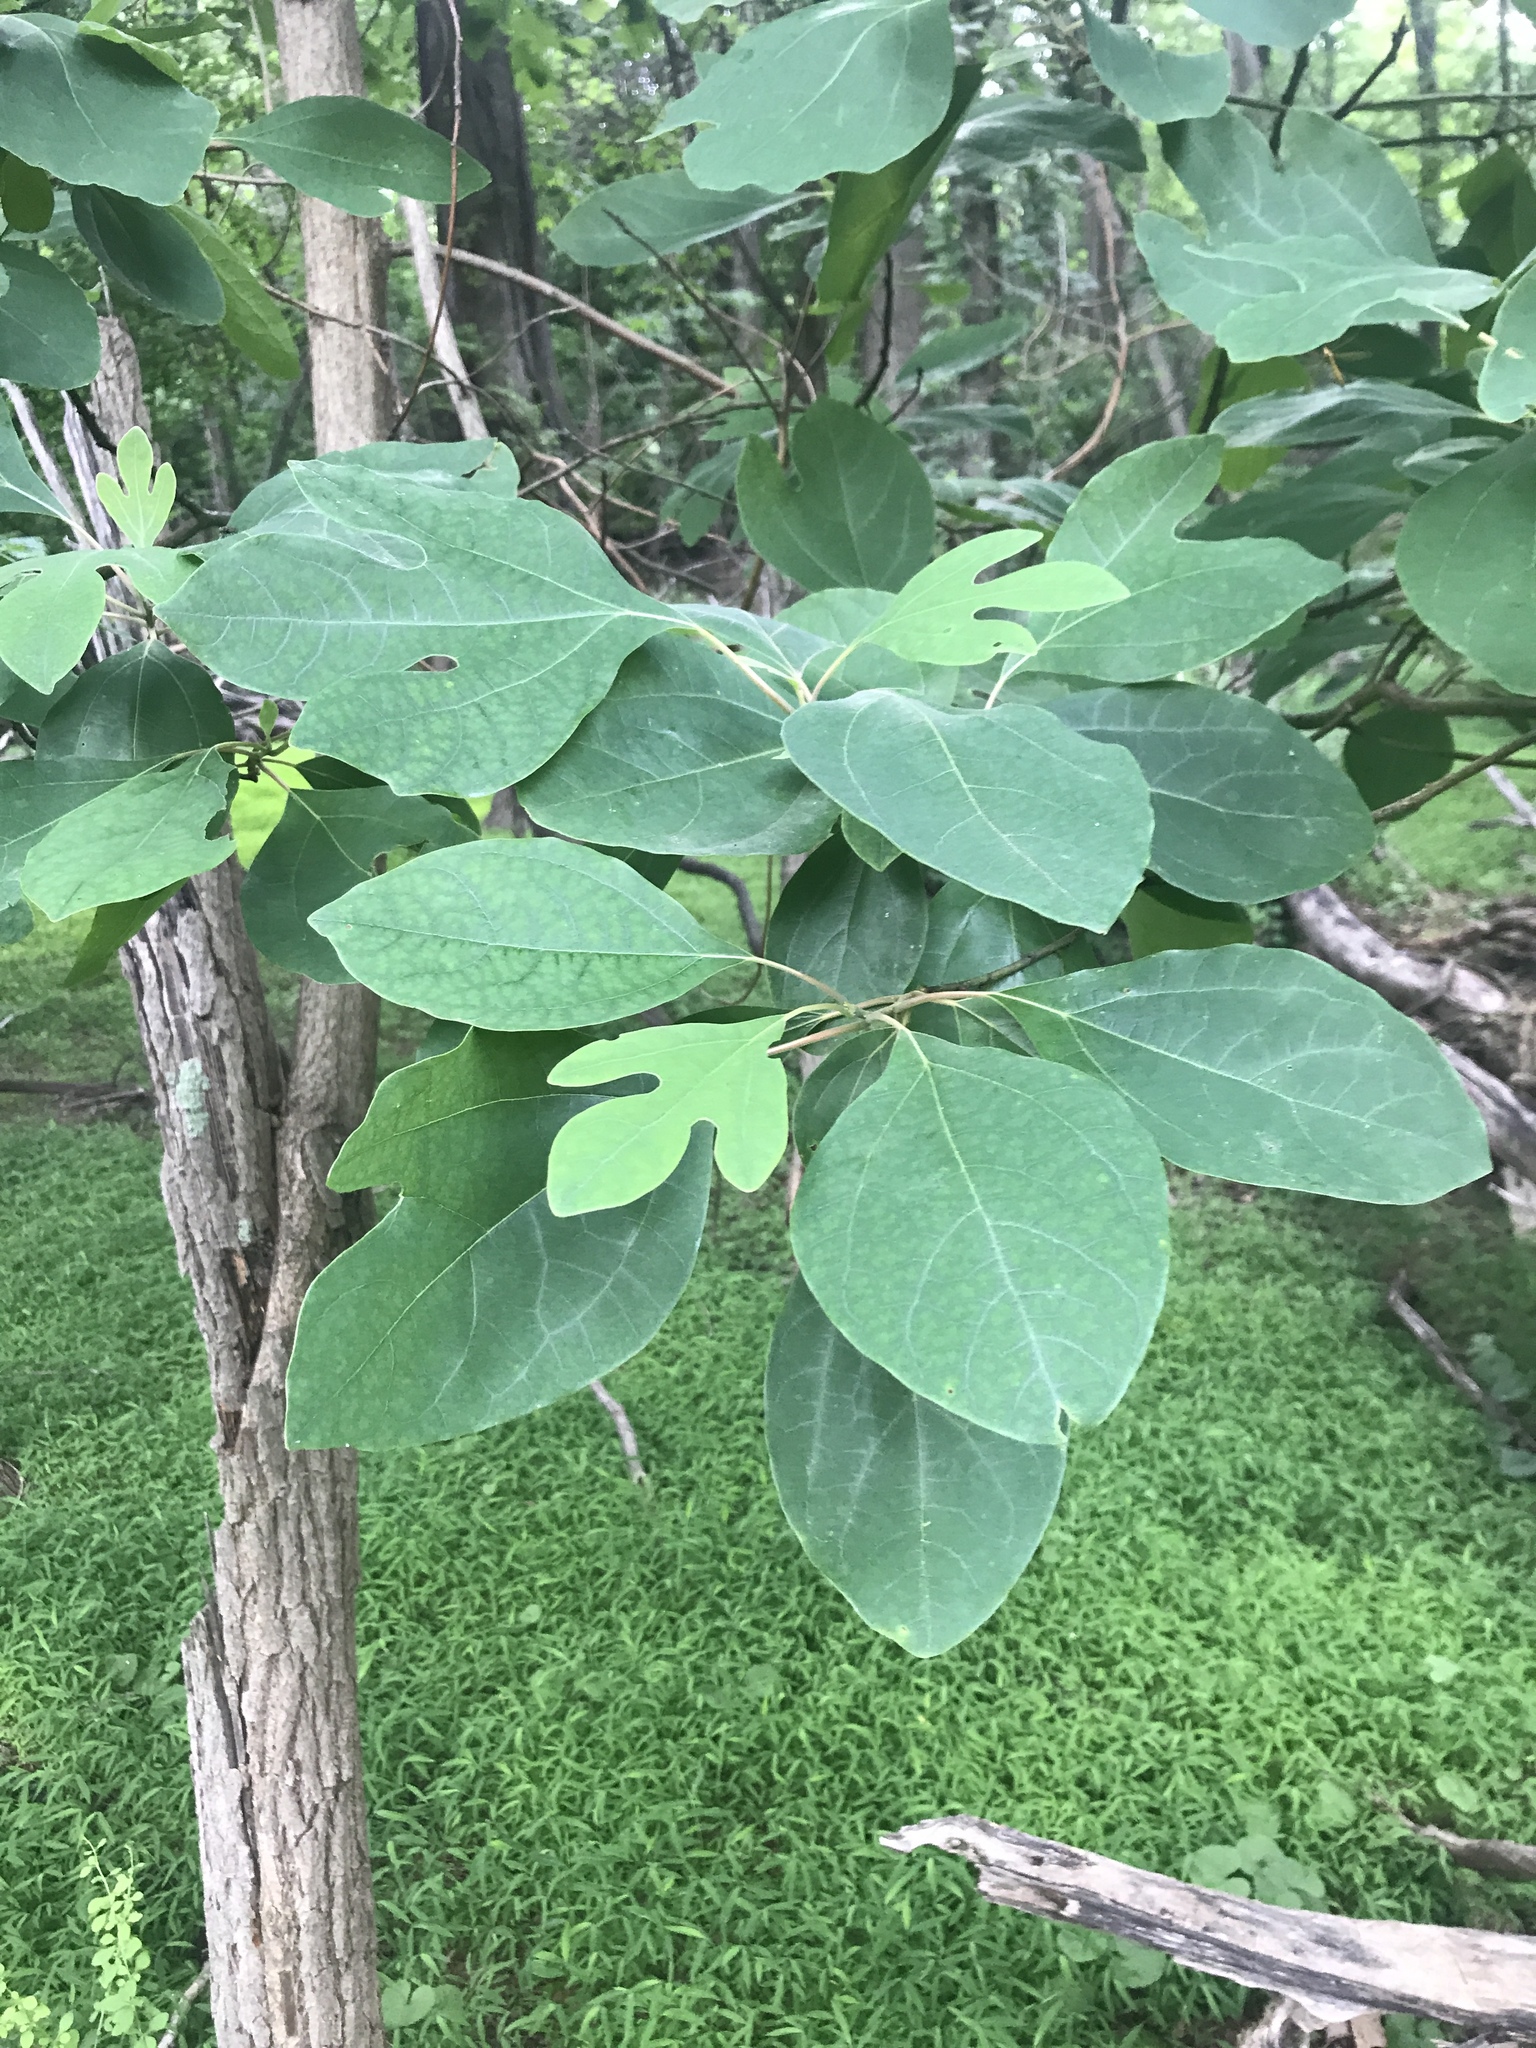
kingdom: Plantae
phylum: Tracheophyta
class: Magnoliopsida
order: Laurales
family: Lauraceae
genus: Sassafras
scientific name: Sassafras albidum
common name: Sassafras
